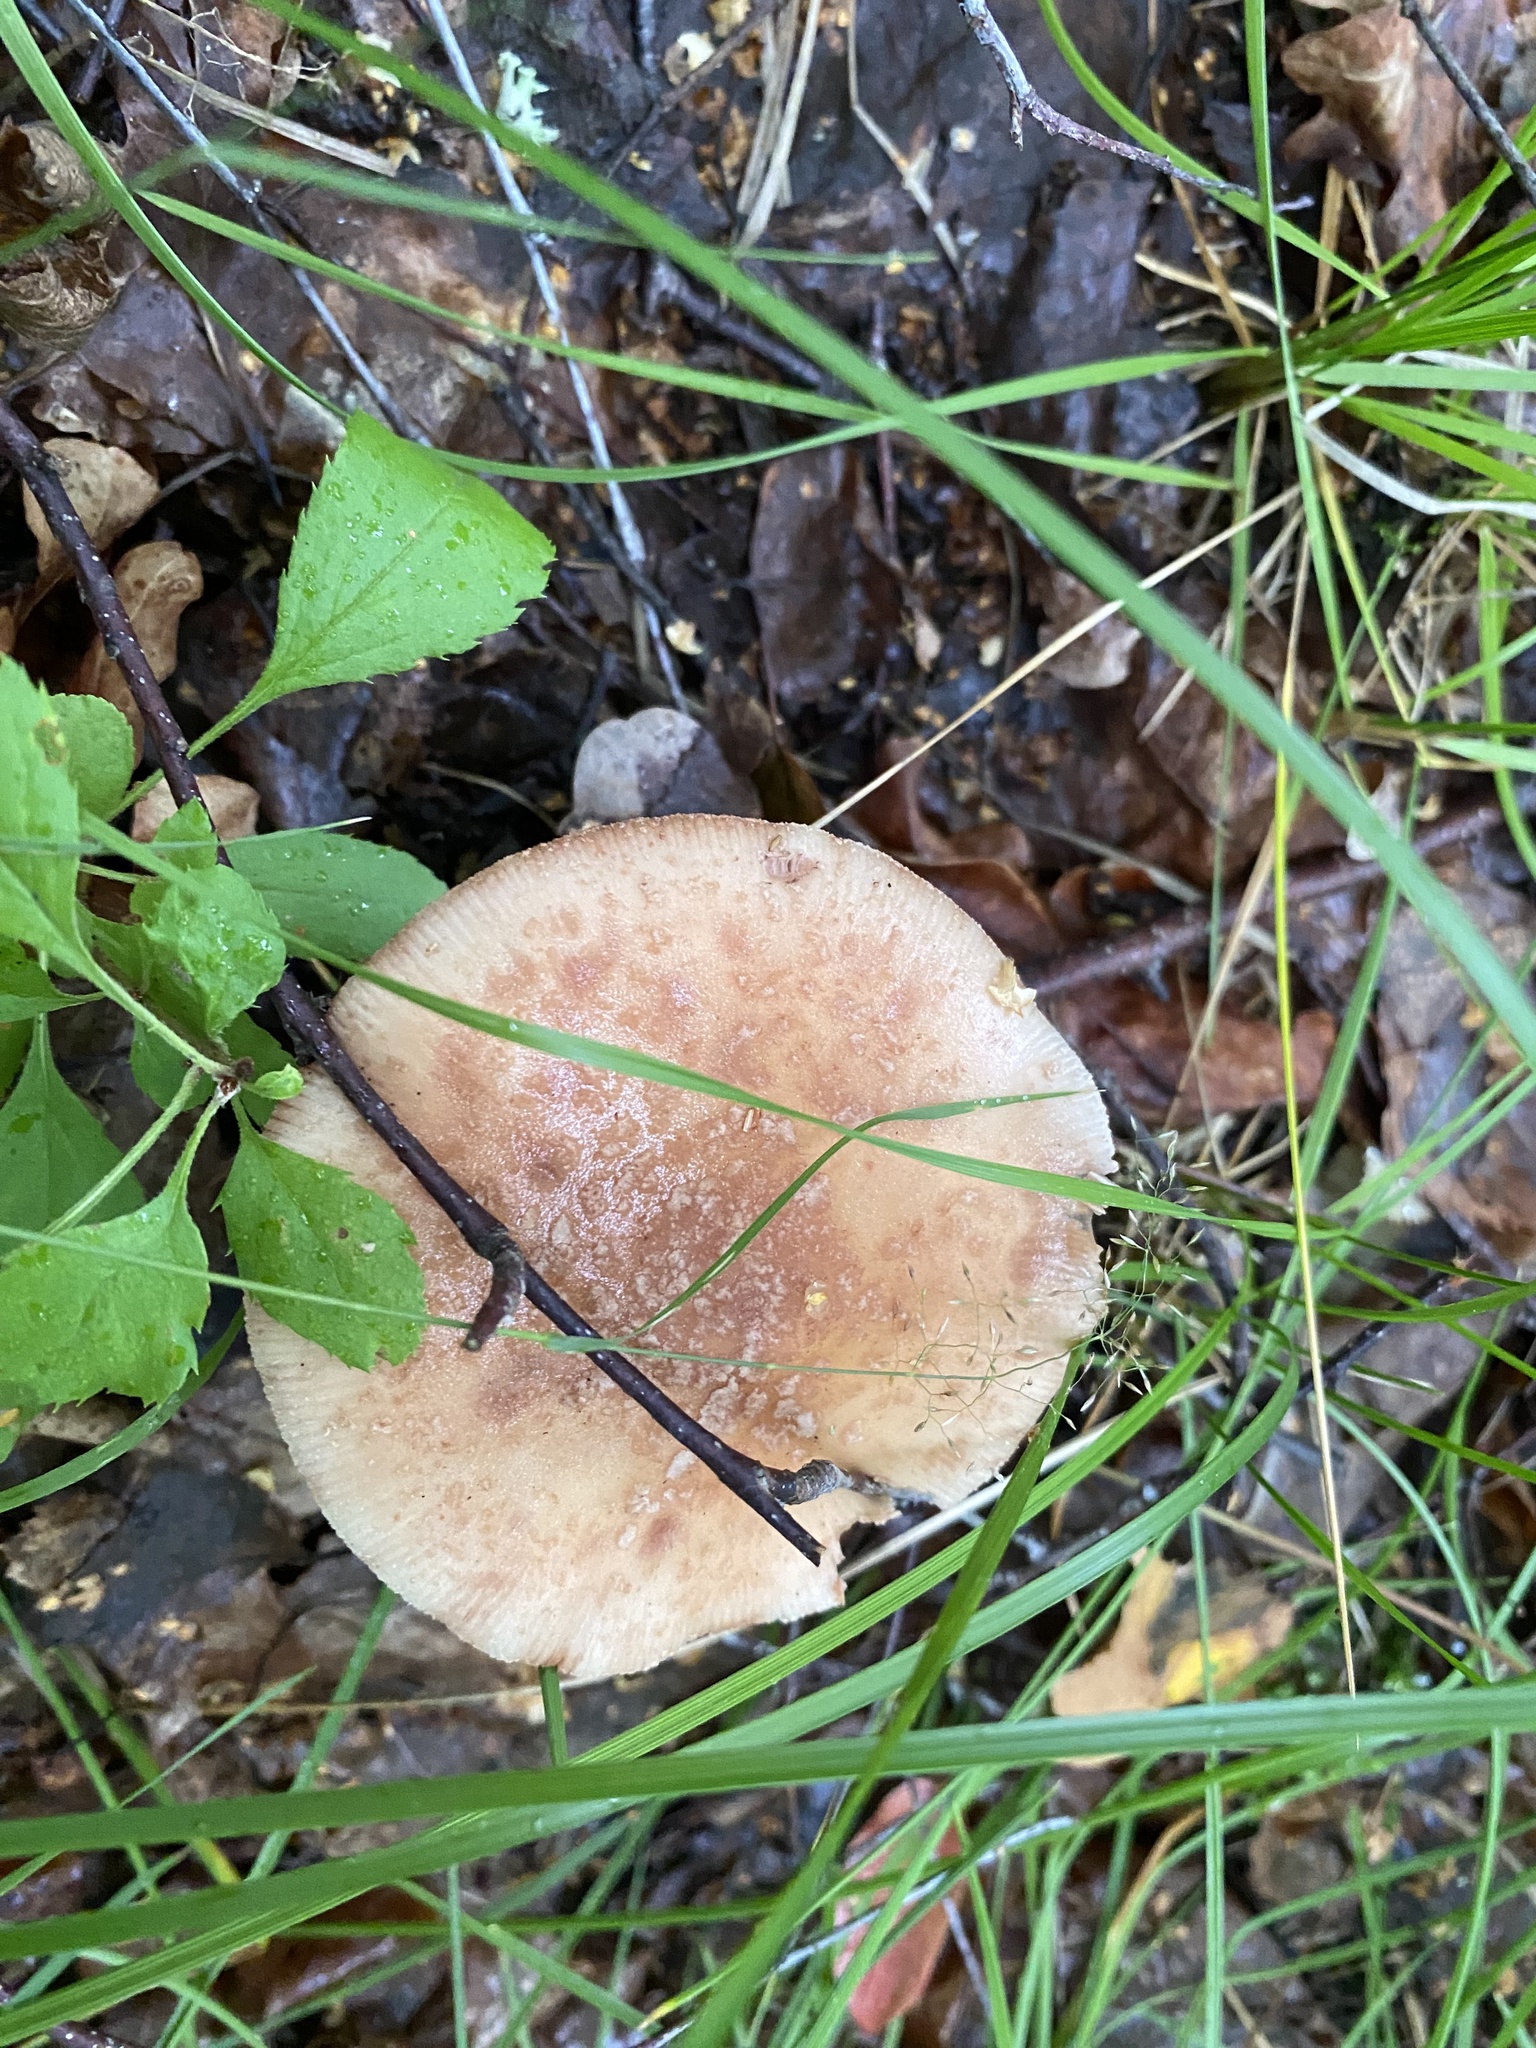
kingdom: Fungi
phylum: Basidiomycota
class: Agaricomycetes
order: Agaricales
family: Amanitaceae
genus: Amanita
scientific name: Amanita rubescens
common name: Blusher
